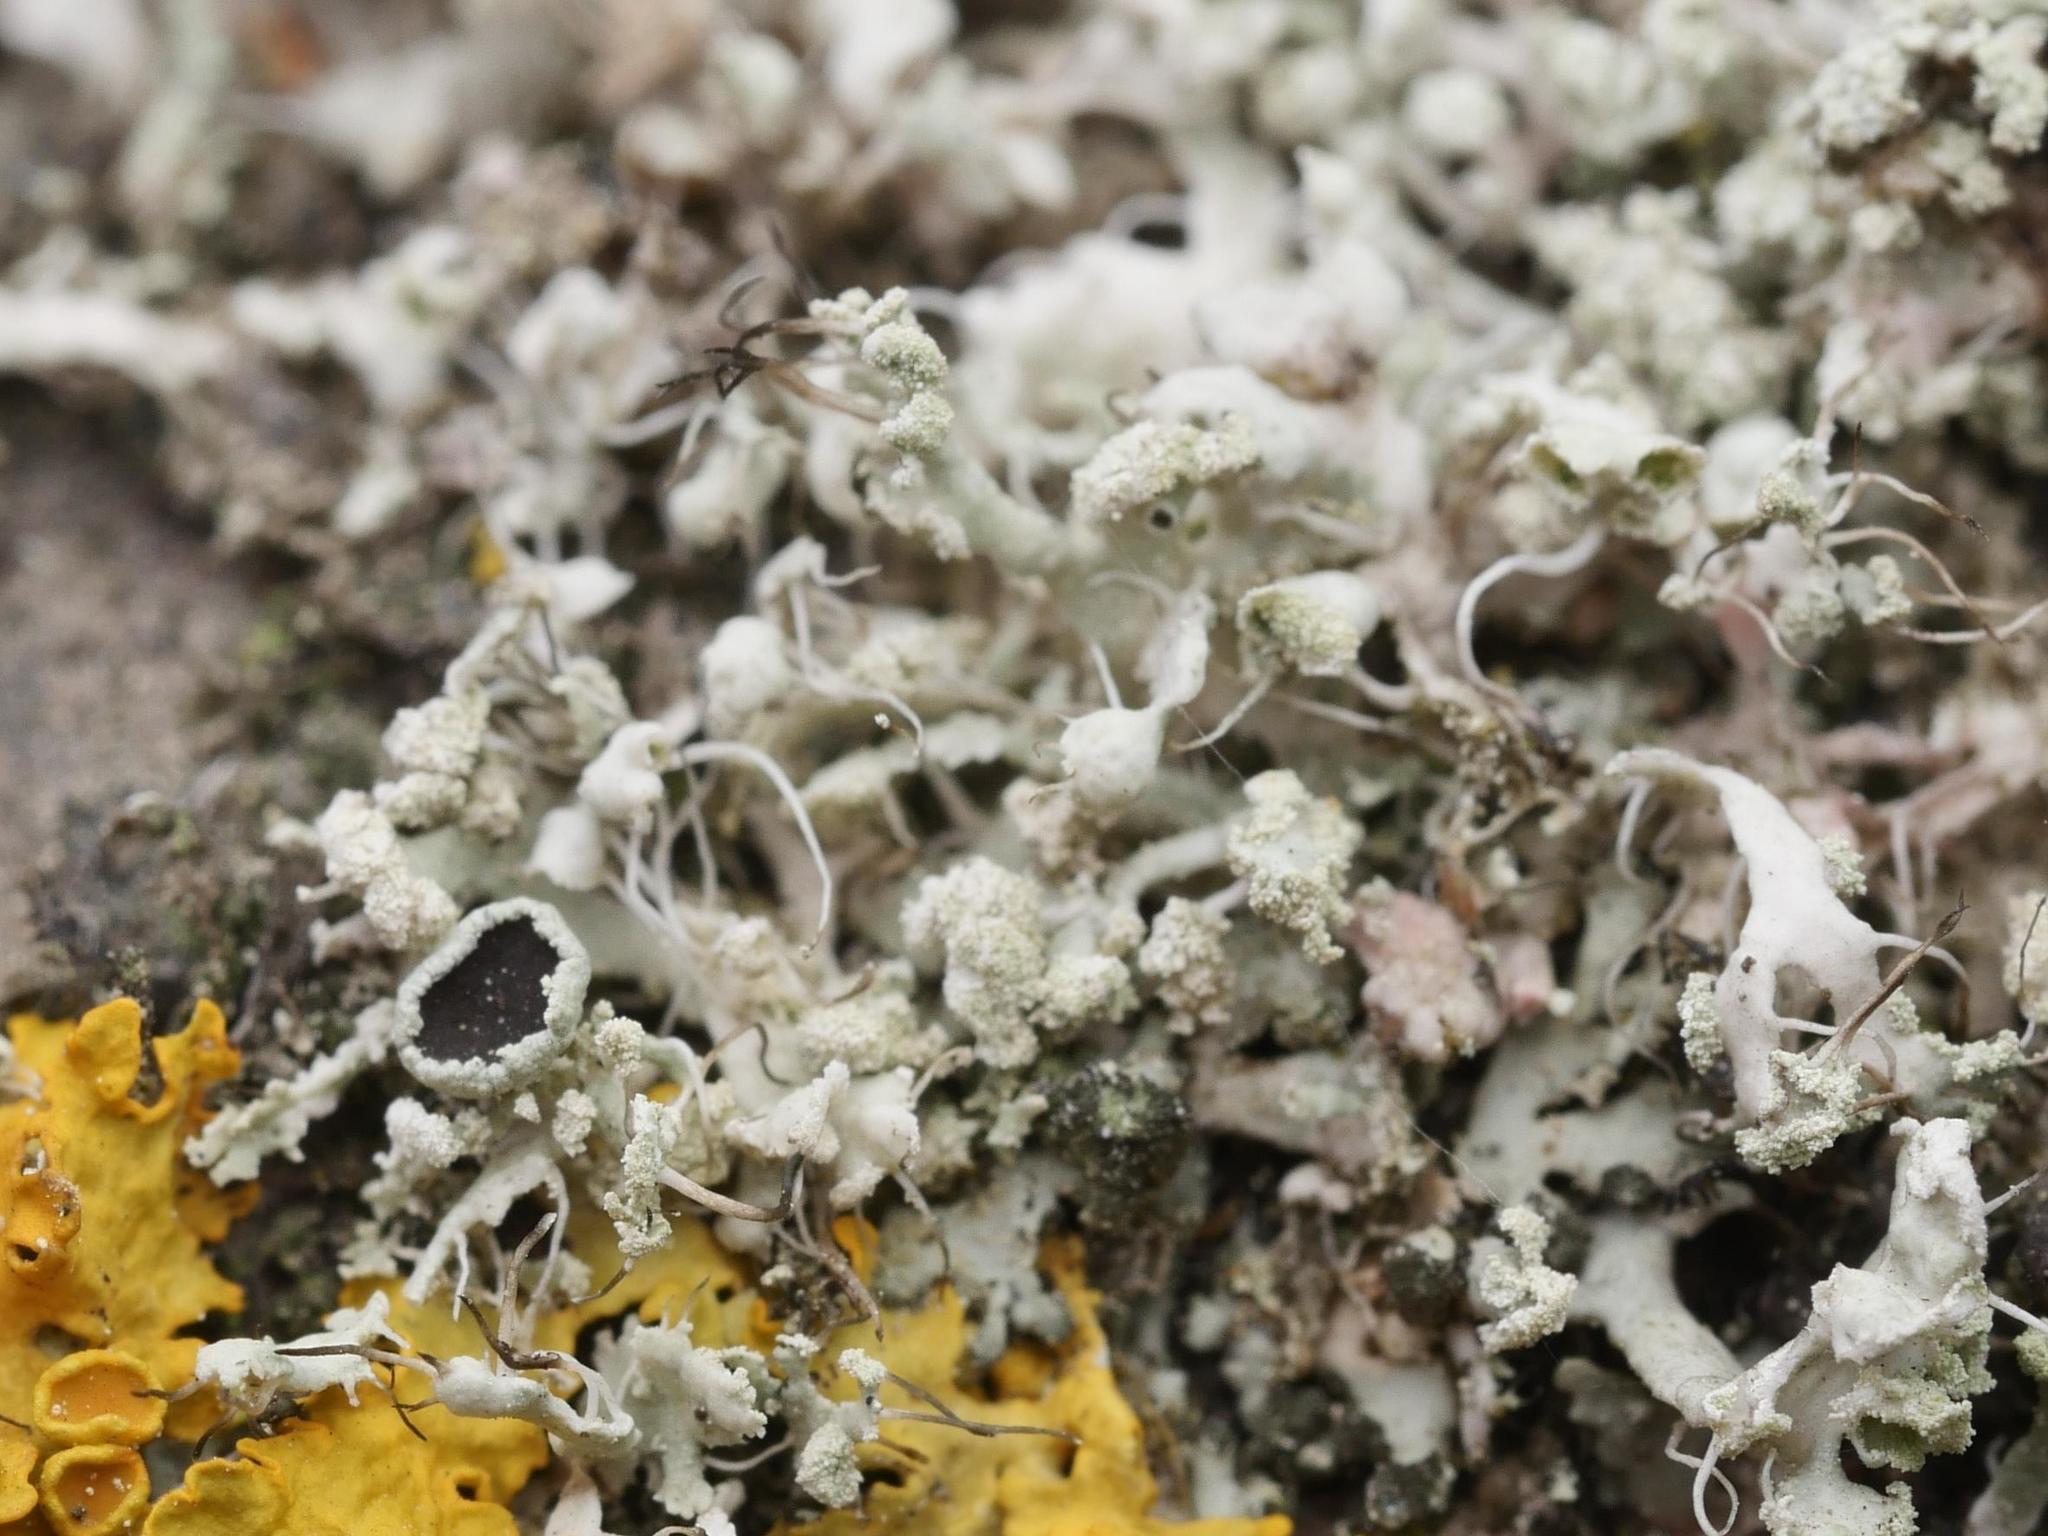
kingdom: Fungi
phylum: Ascomycota
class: Lecanoromycetes
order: Caliciales
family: Physciaceae
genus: Physcia
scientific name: Physcia tenella
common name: Fringed rosette lichen
